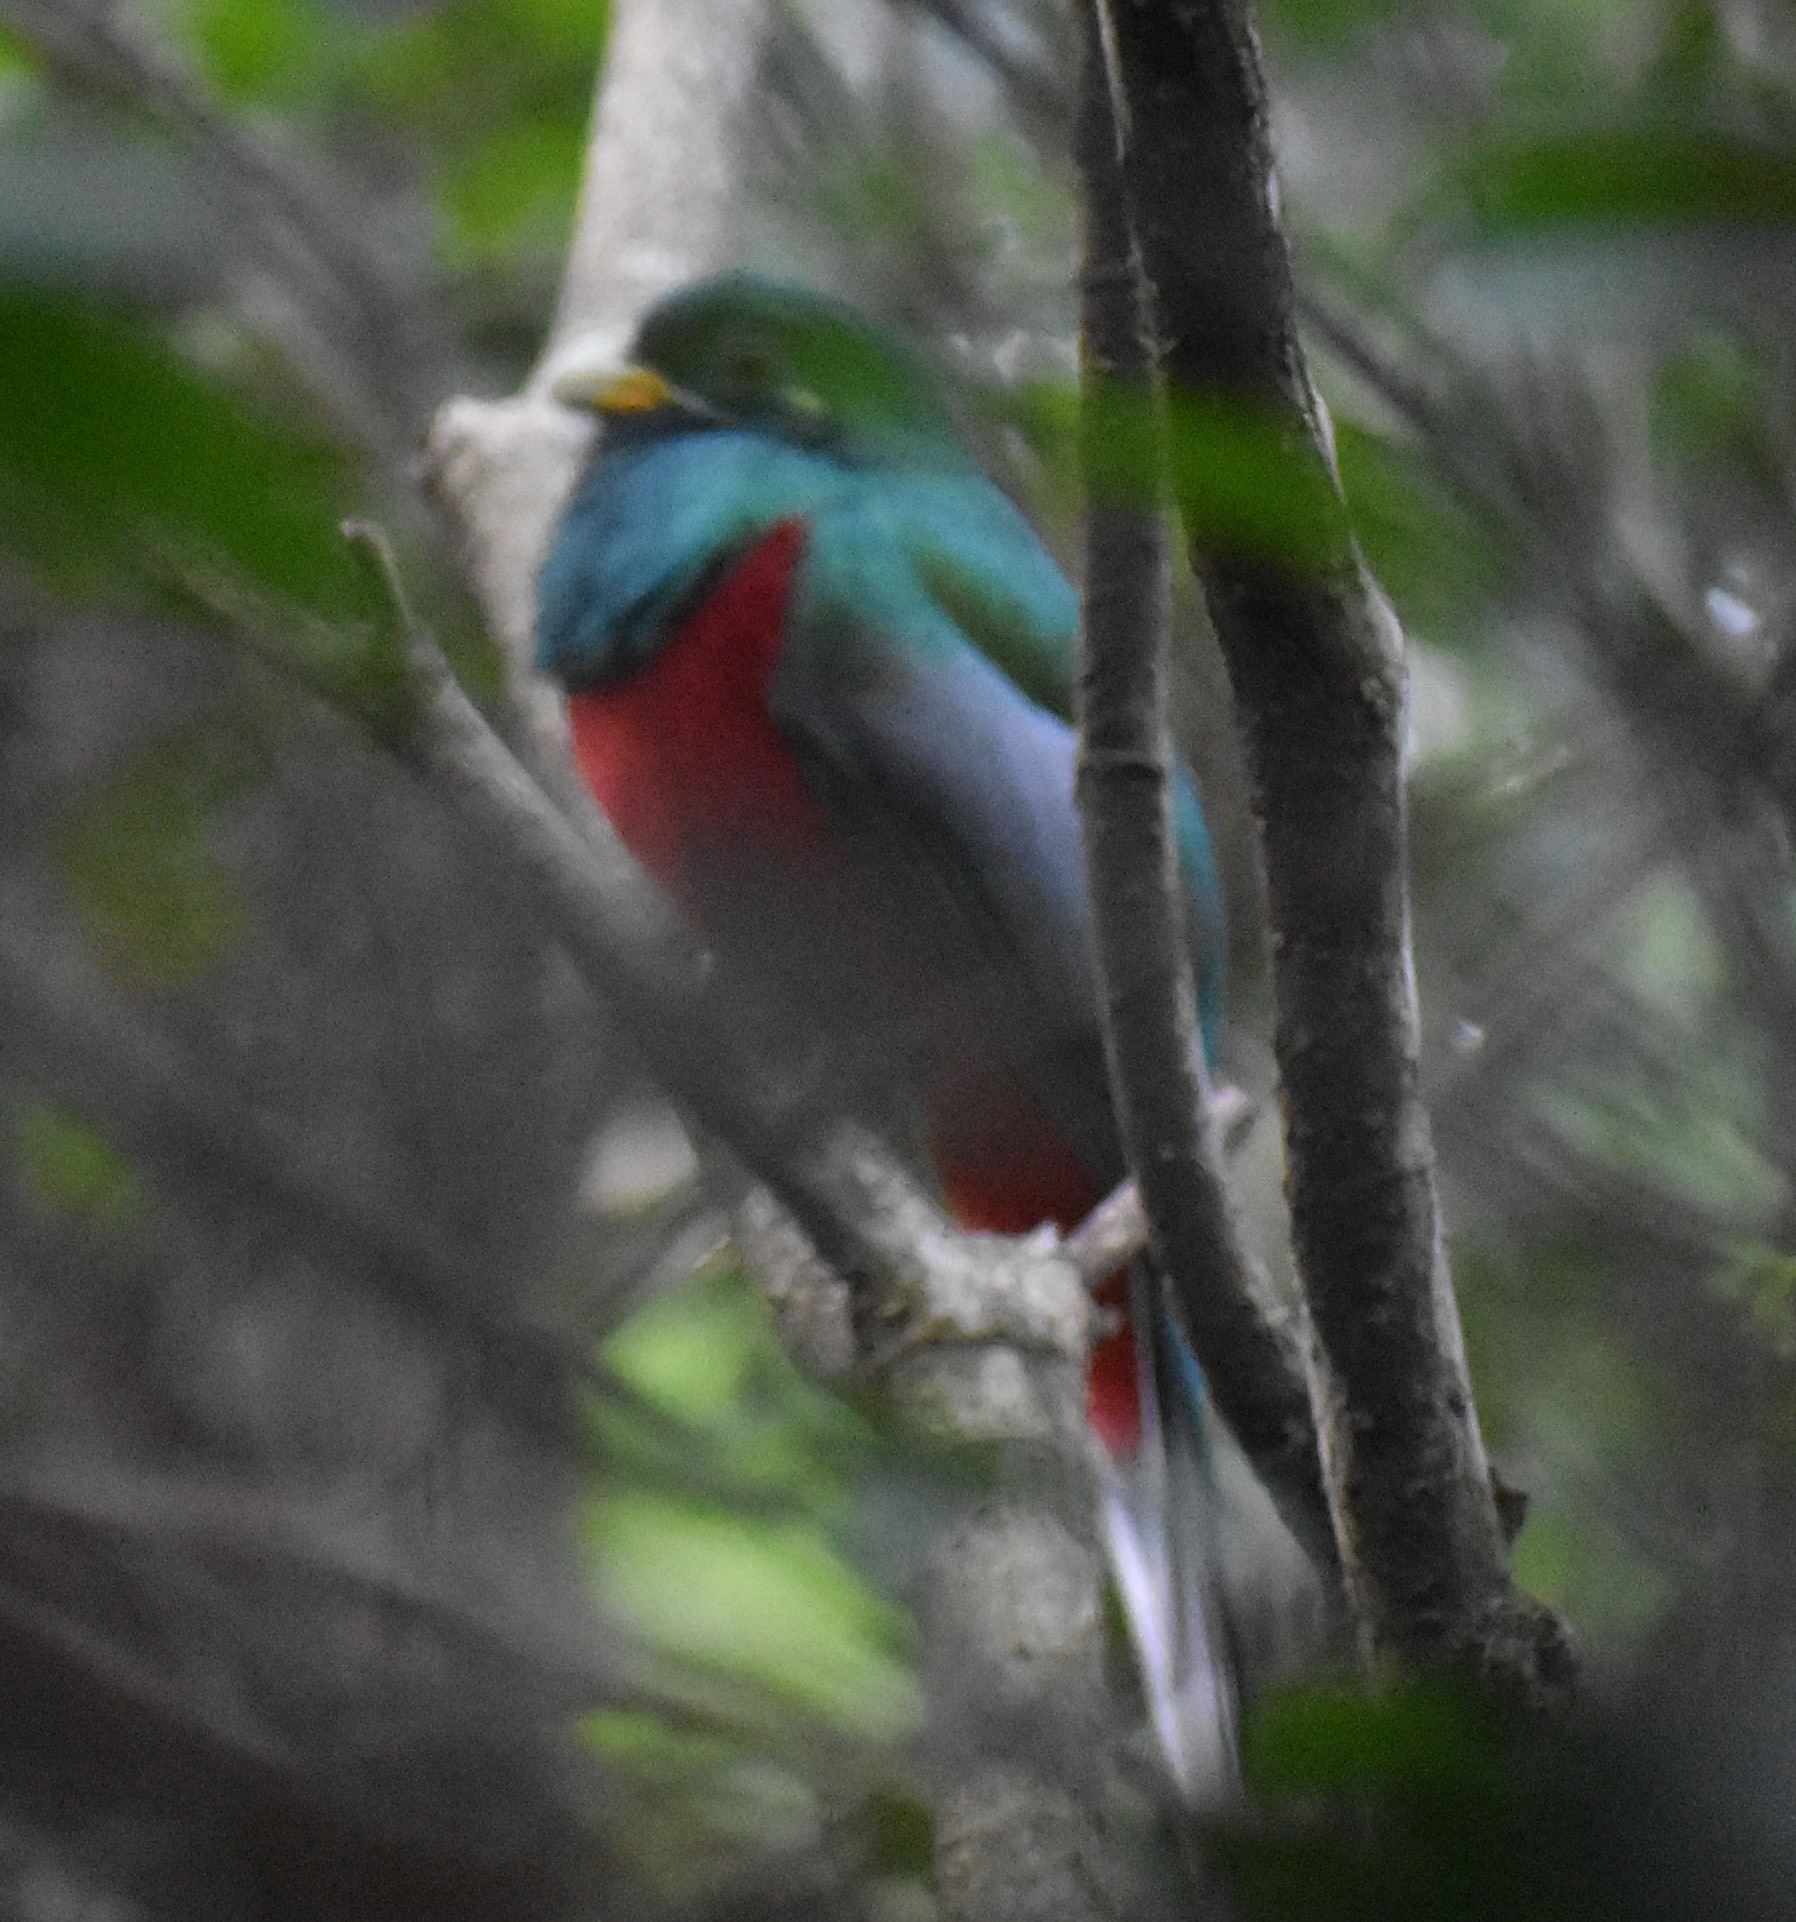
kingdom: Animalia
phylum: Chordata
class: Aves
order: Trogoniformes
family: Trogonidae
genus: Apaloderma
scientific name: Apaloderma narina
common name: Narina trogon
